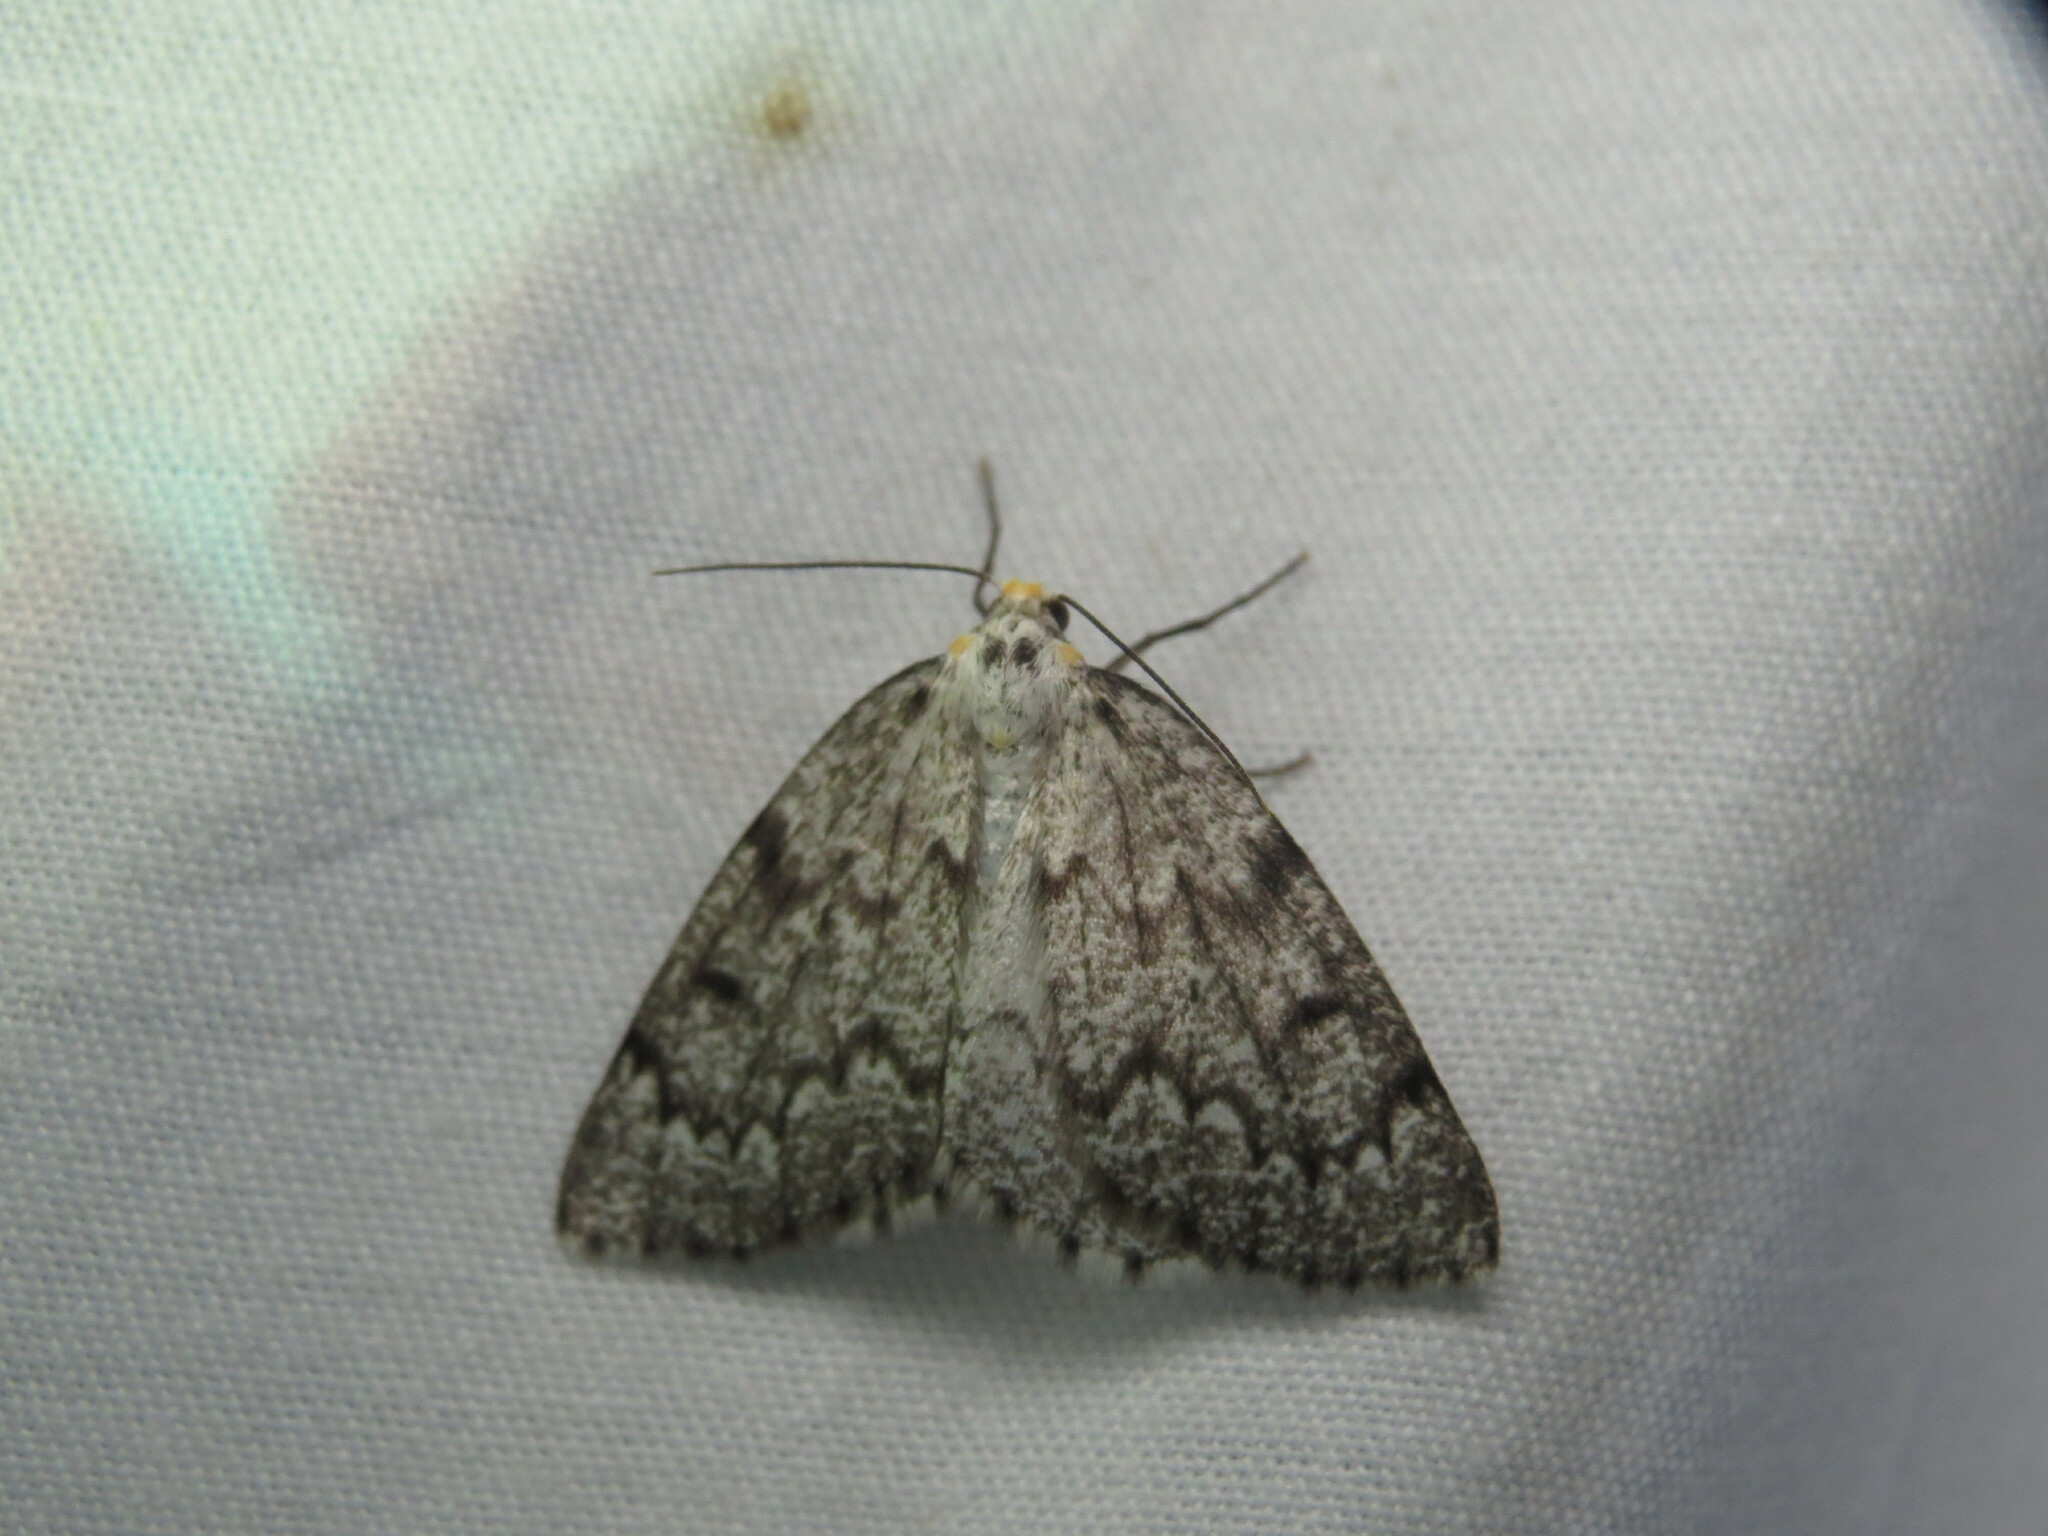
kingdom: Animalia
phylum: Arthropoda
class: Insecta
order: Lepidoptera
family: Geometridae
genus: Nepytia
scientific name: Nepytia canosaria
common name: False hemlock looper
